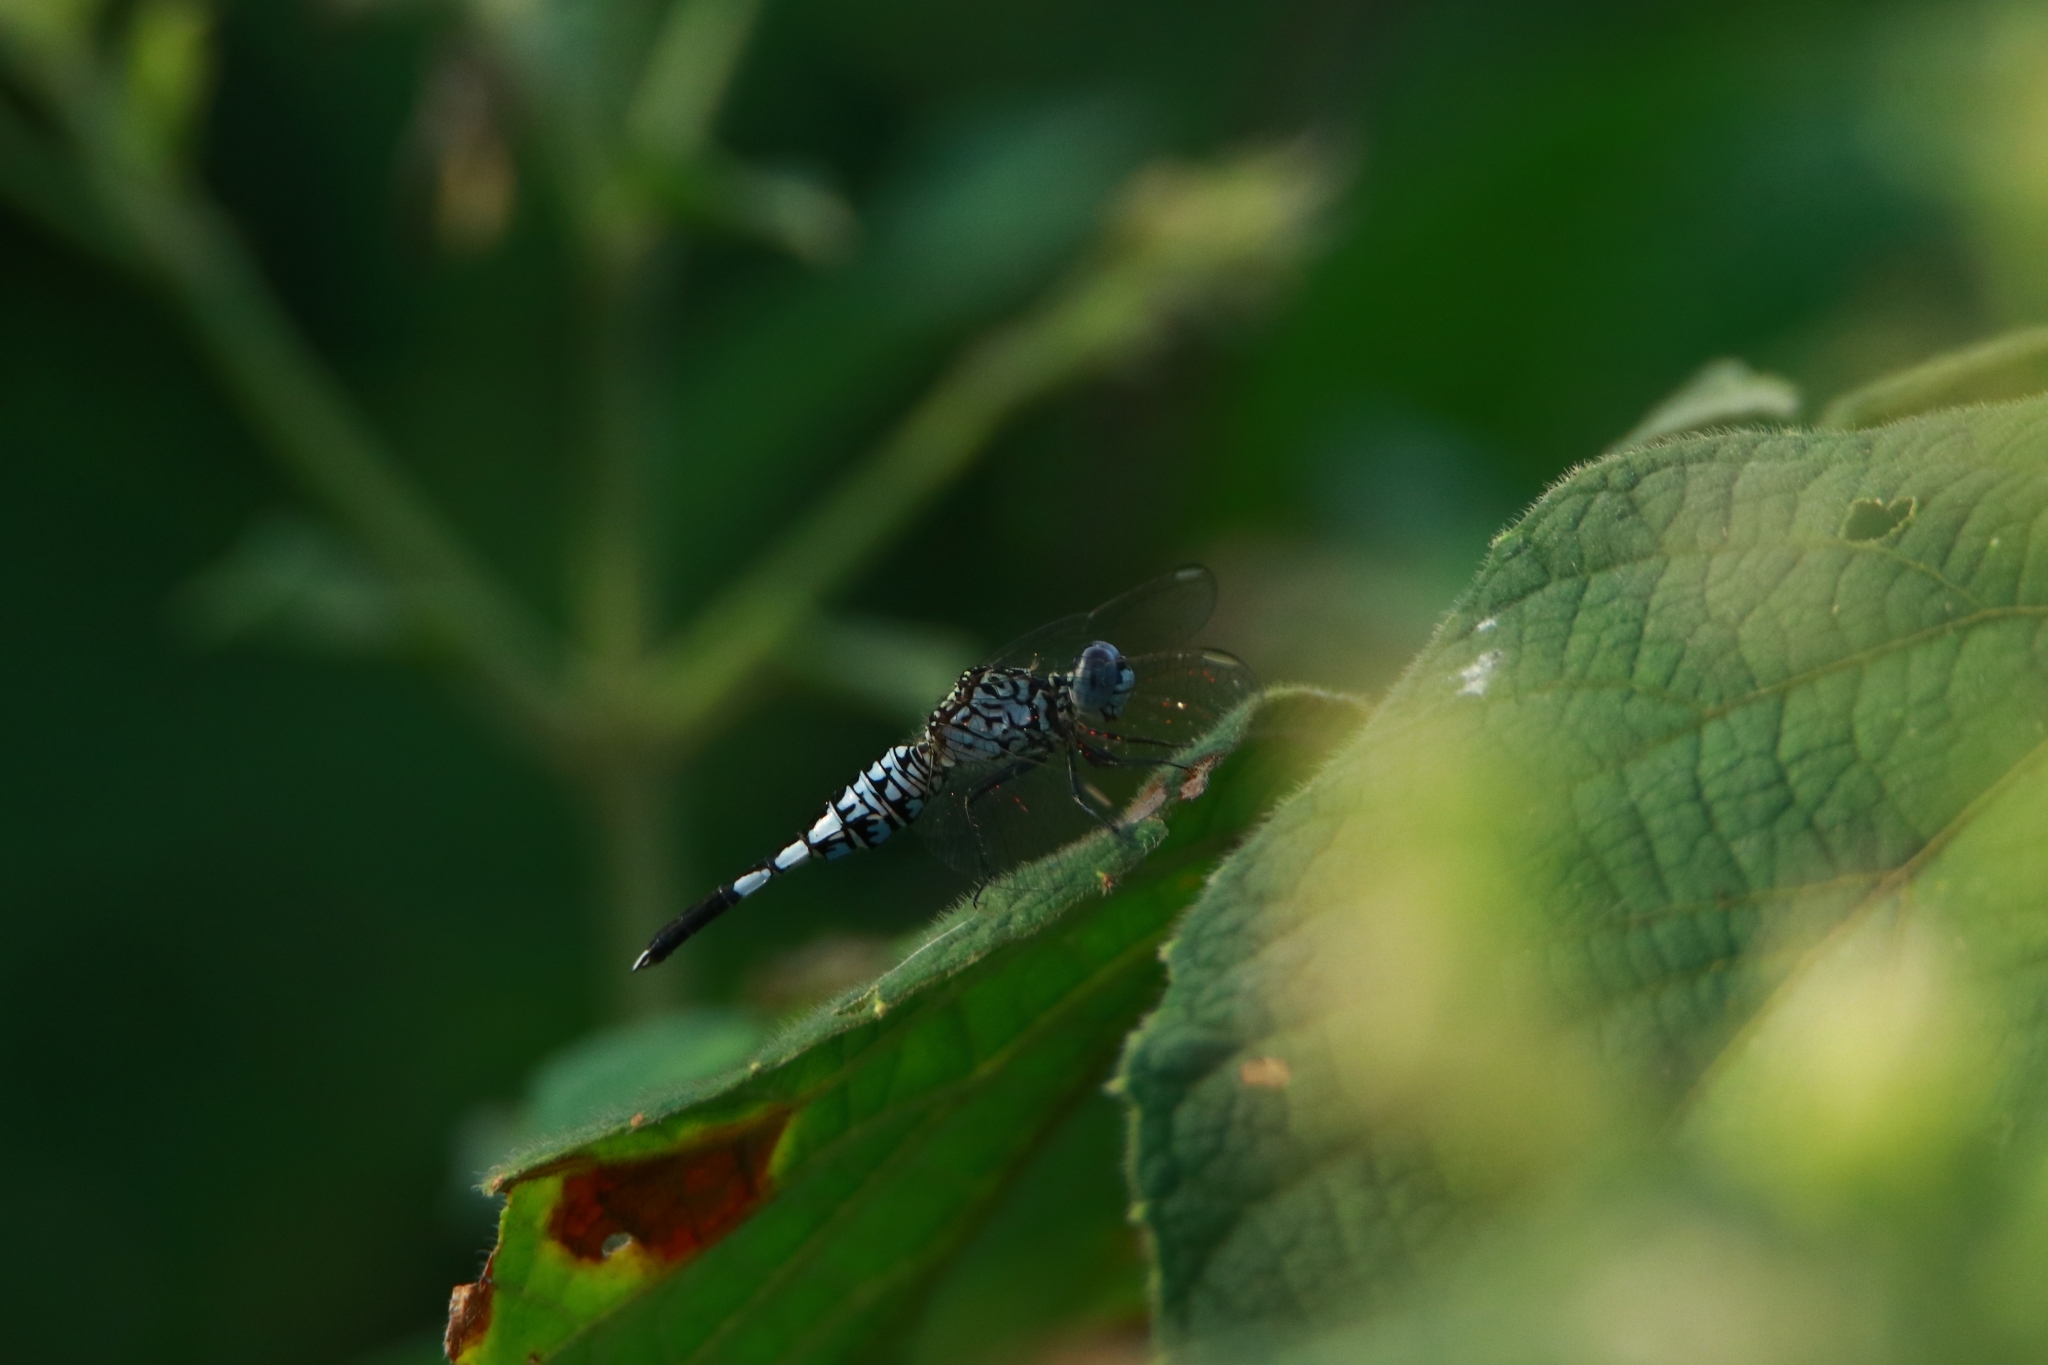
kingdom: Animalia
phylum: Arthropoda
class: Insecta
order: Odonata
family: Libellulidae
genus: Acisoma
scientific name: Acisoma panorpoides
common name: Asian pintail
